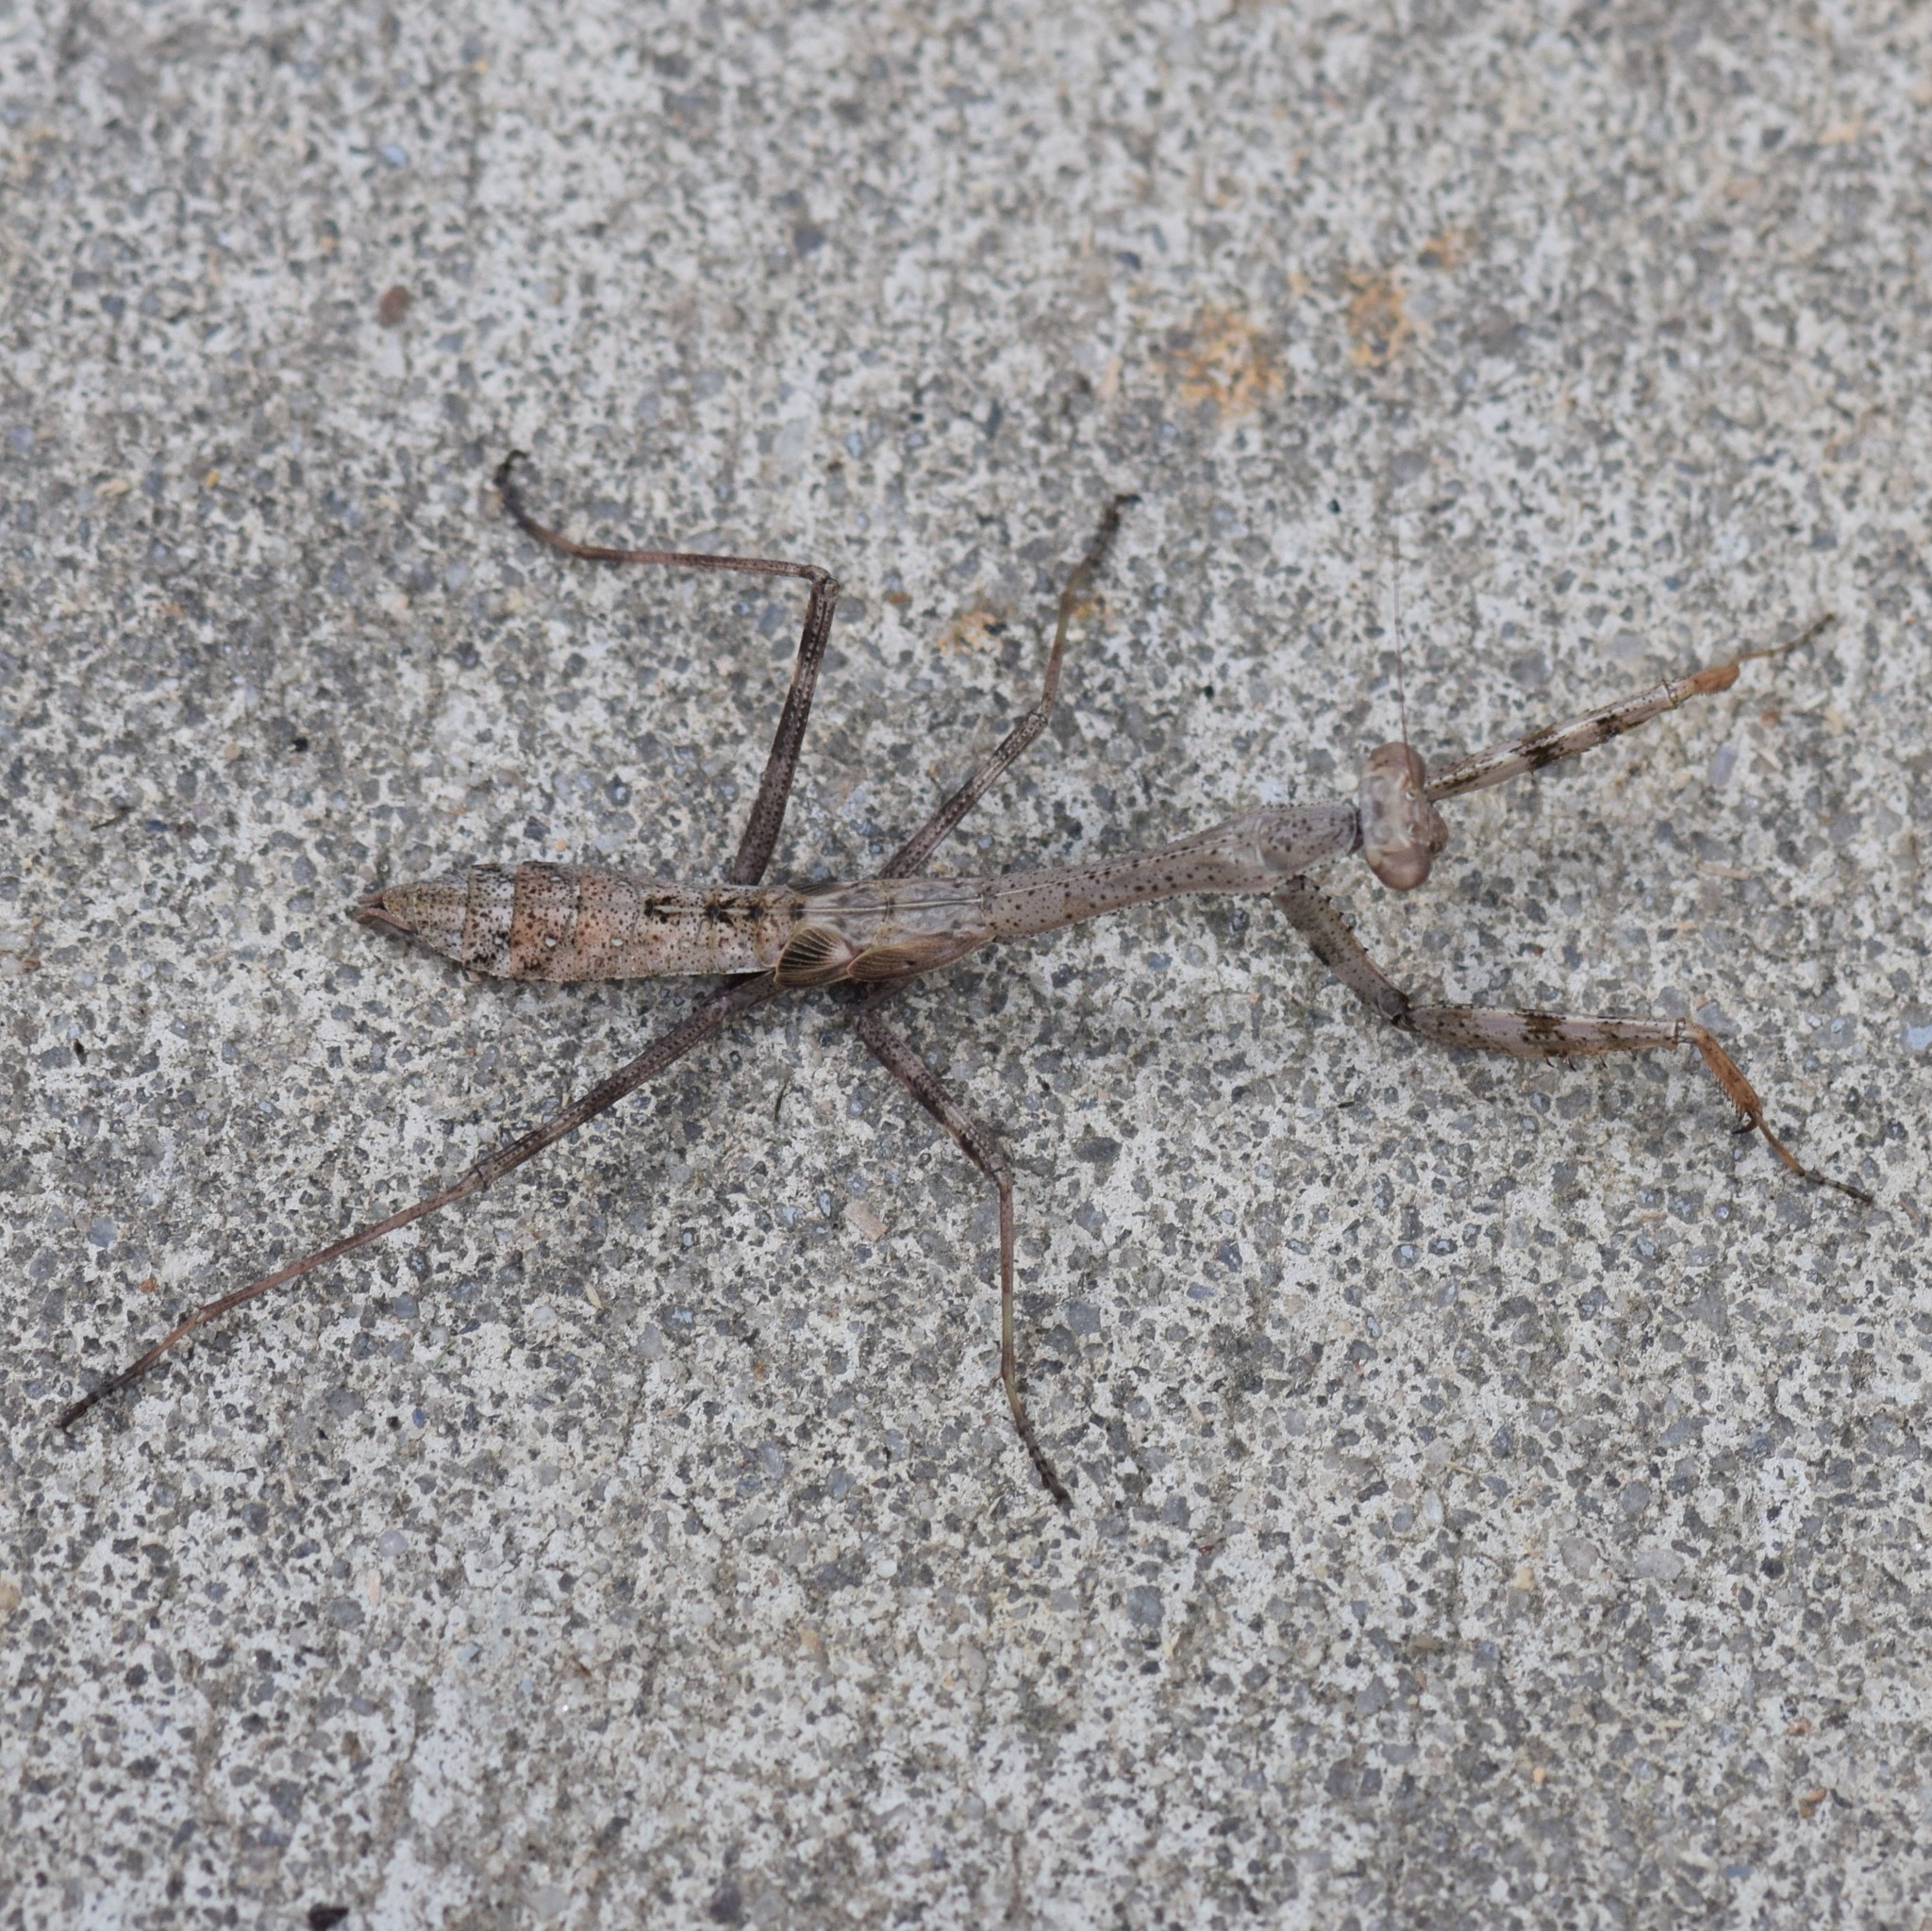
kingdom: Animalia
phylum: Arthropoda
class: Insecta
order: Mantodea
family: Mantidae
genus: Stagmomantis
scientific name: Stagmomantis carolina
